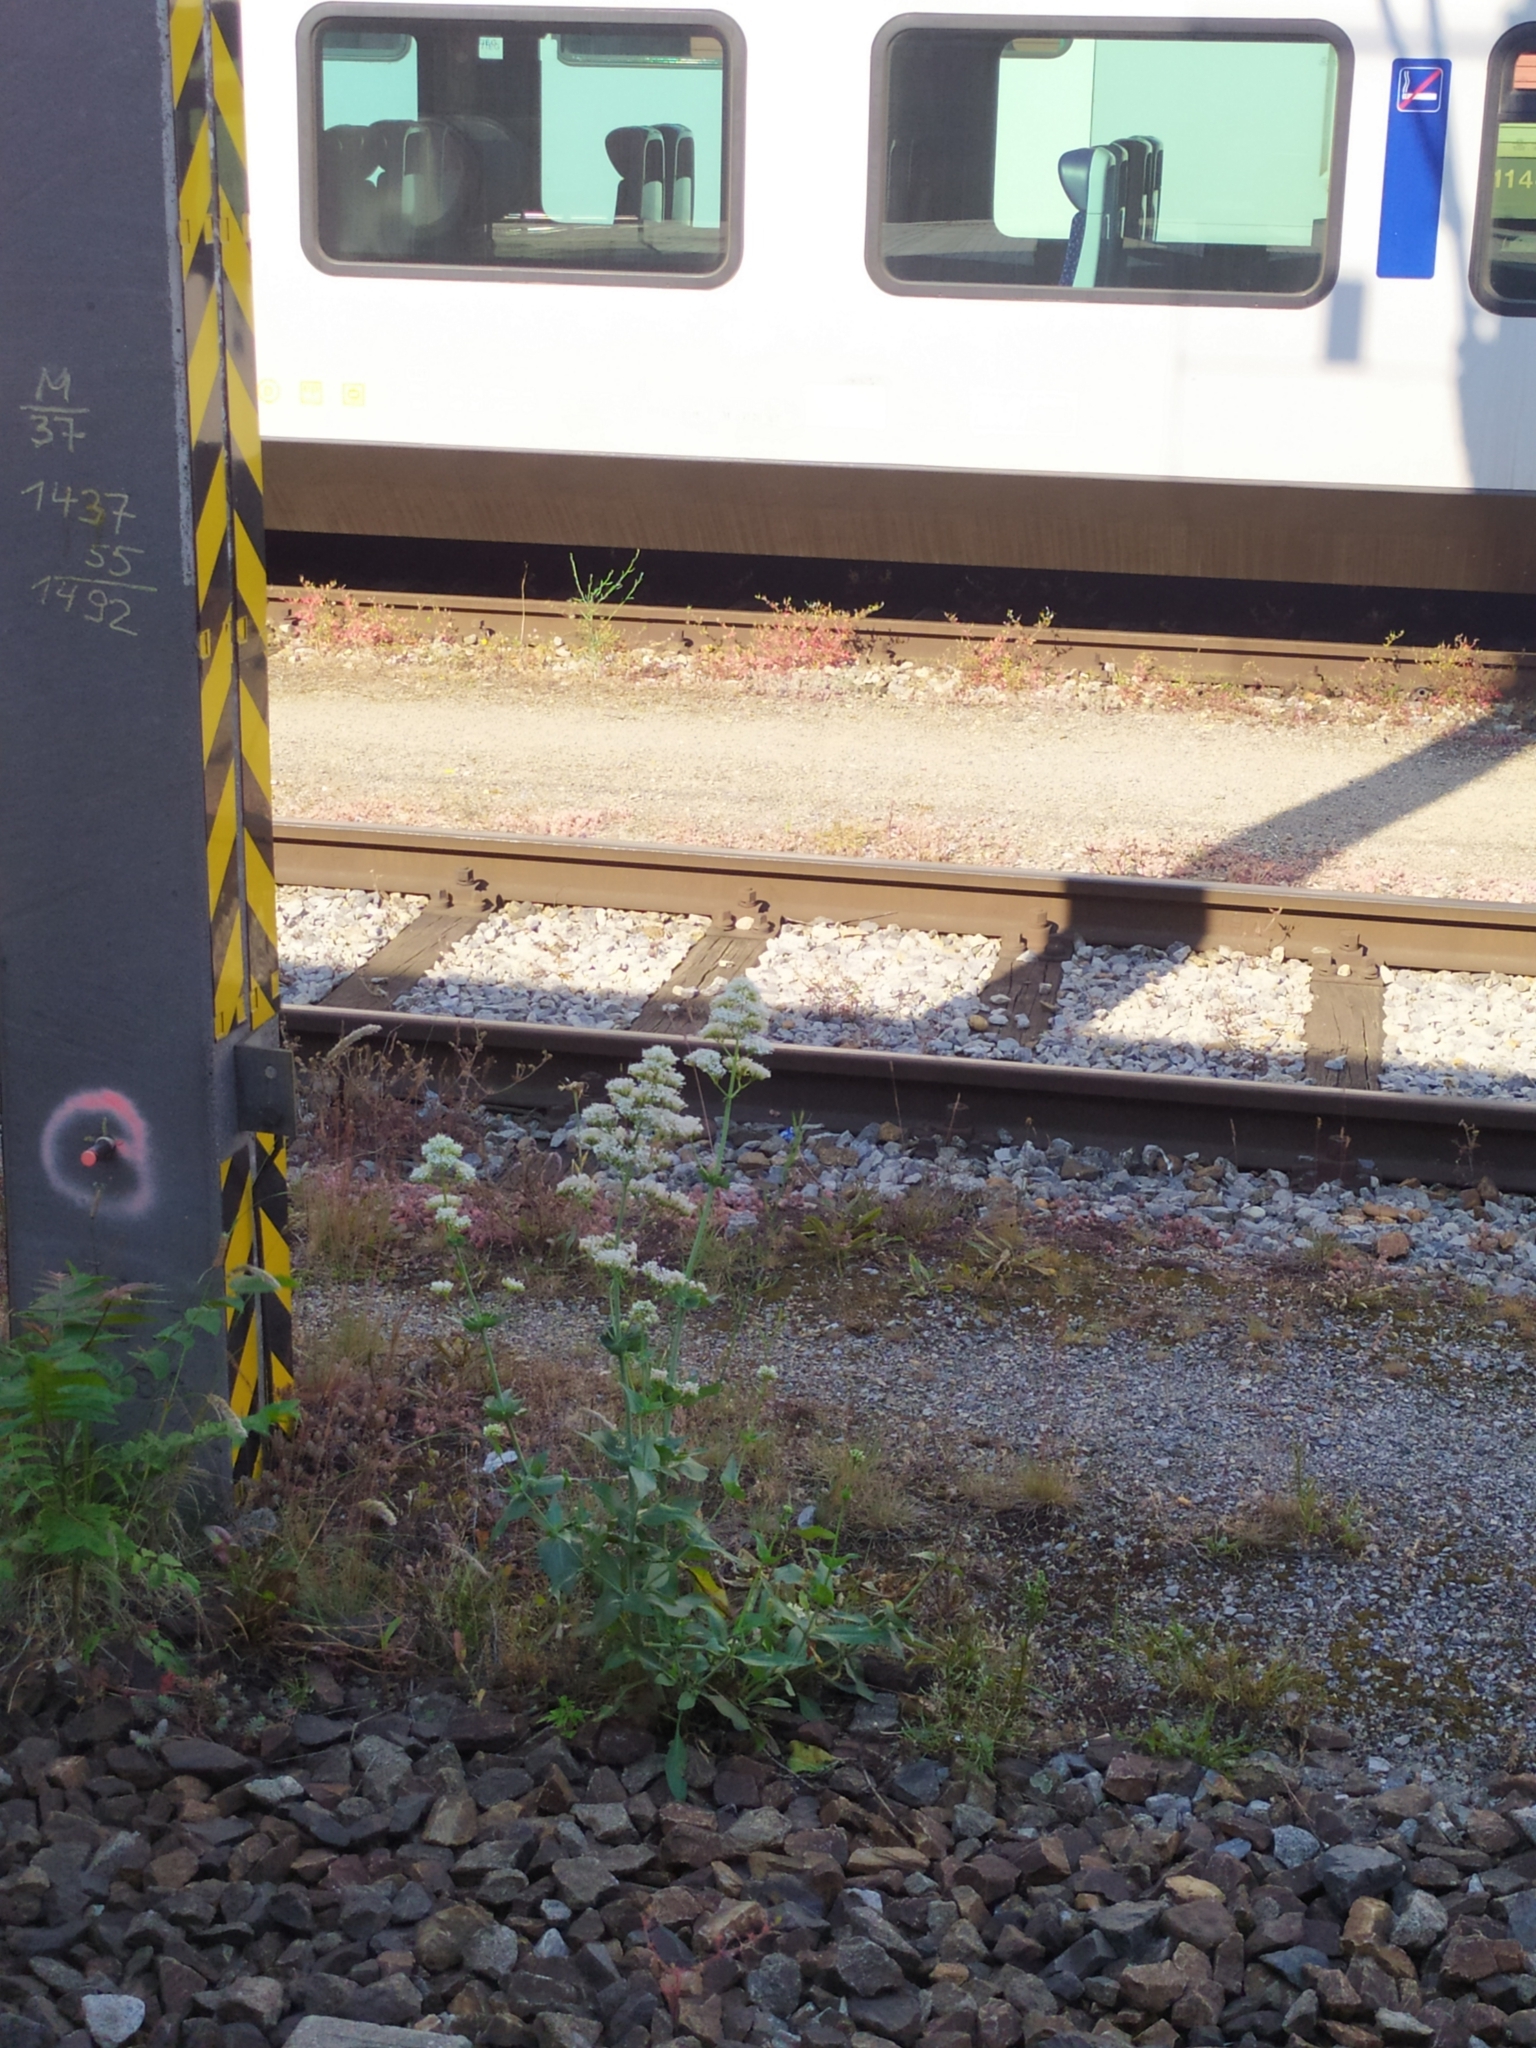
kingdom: Plantae
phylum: Tracheophyta
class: Magnoliopsida
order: Dipsacales
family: Caprifoliaceae
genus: Centranthus
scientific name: Centranthus ruber
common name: Red valerian
